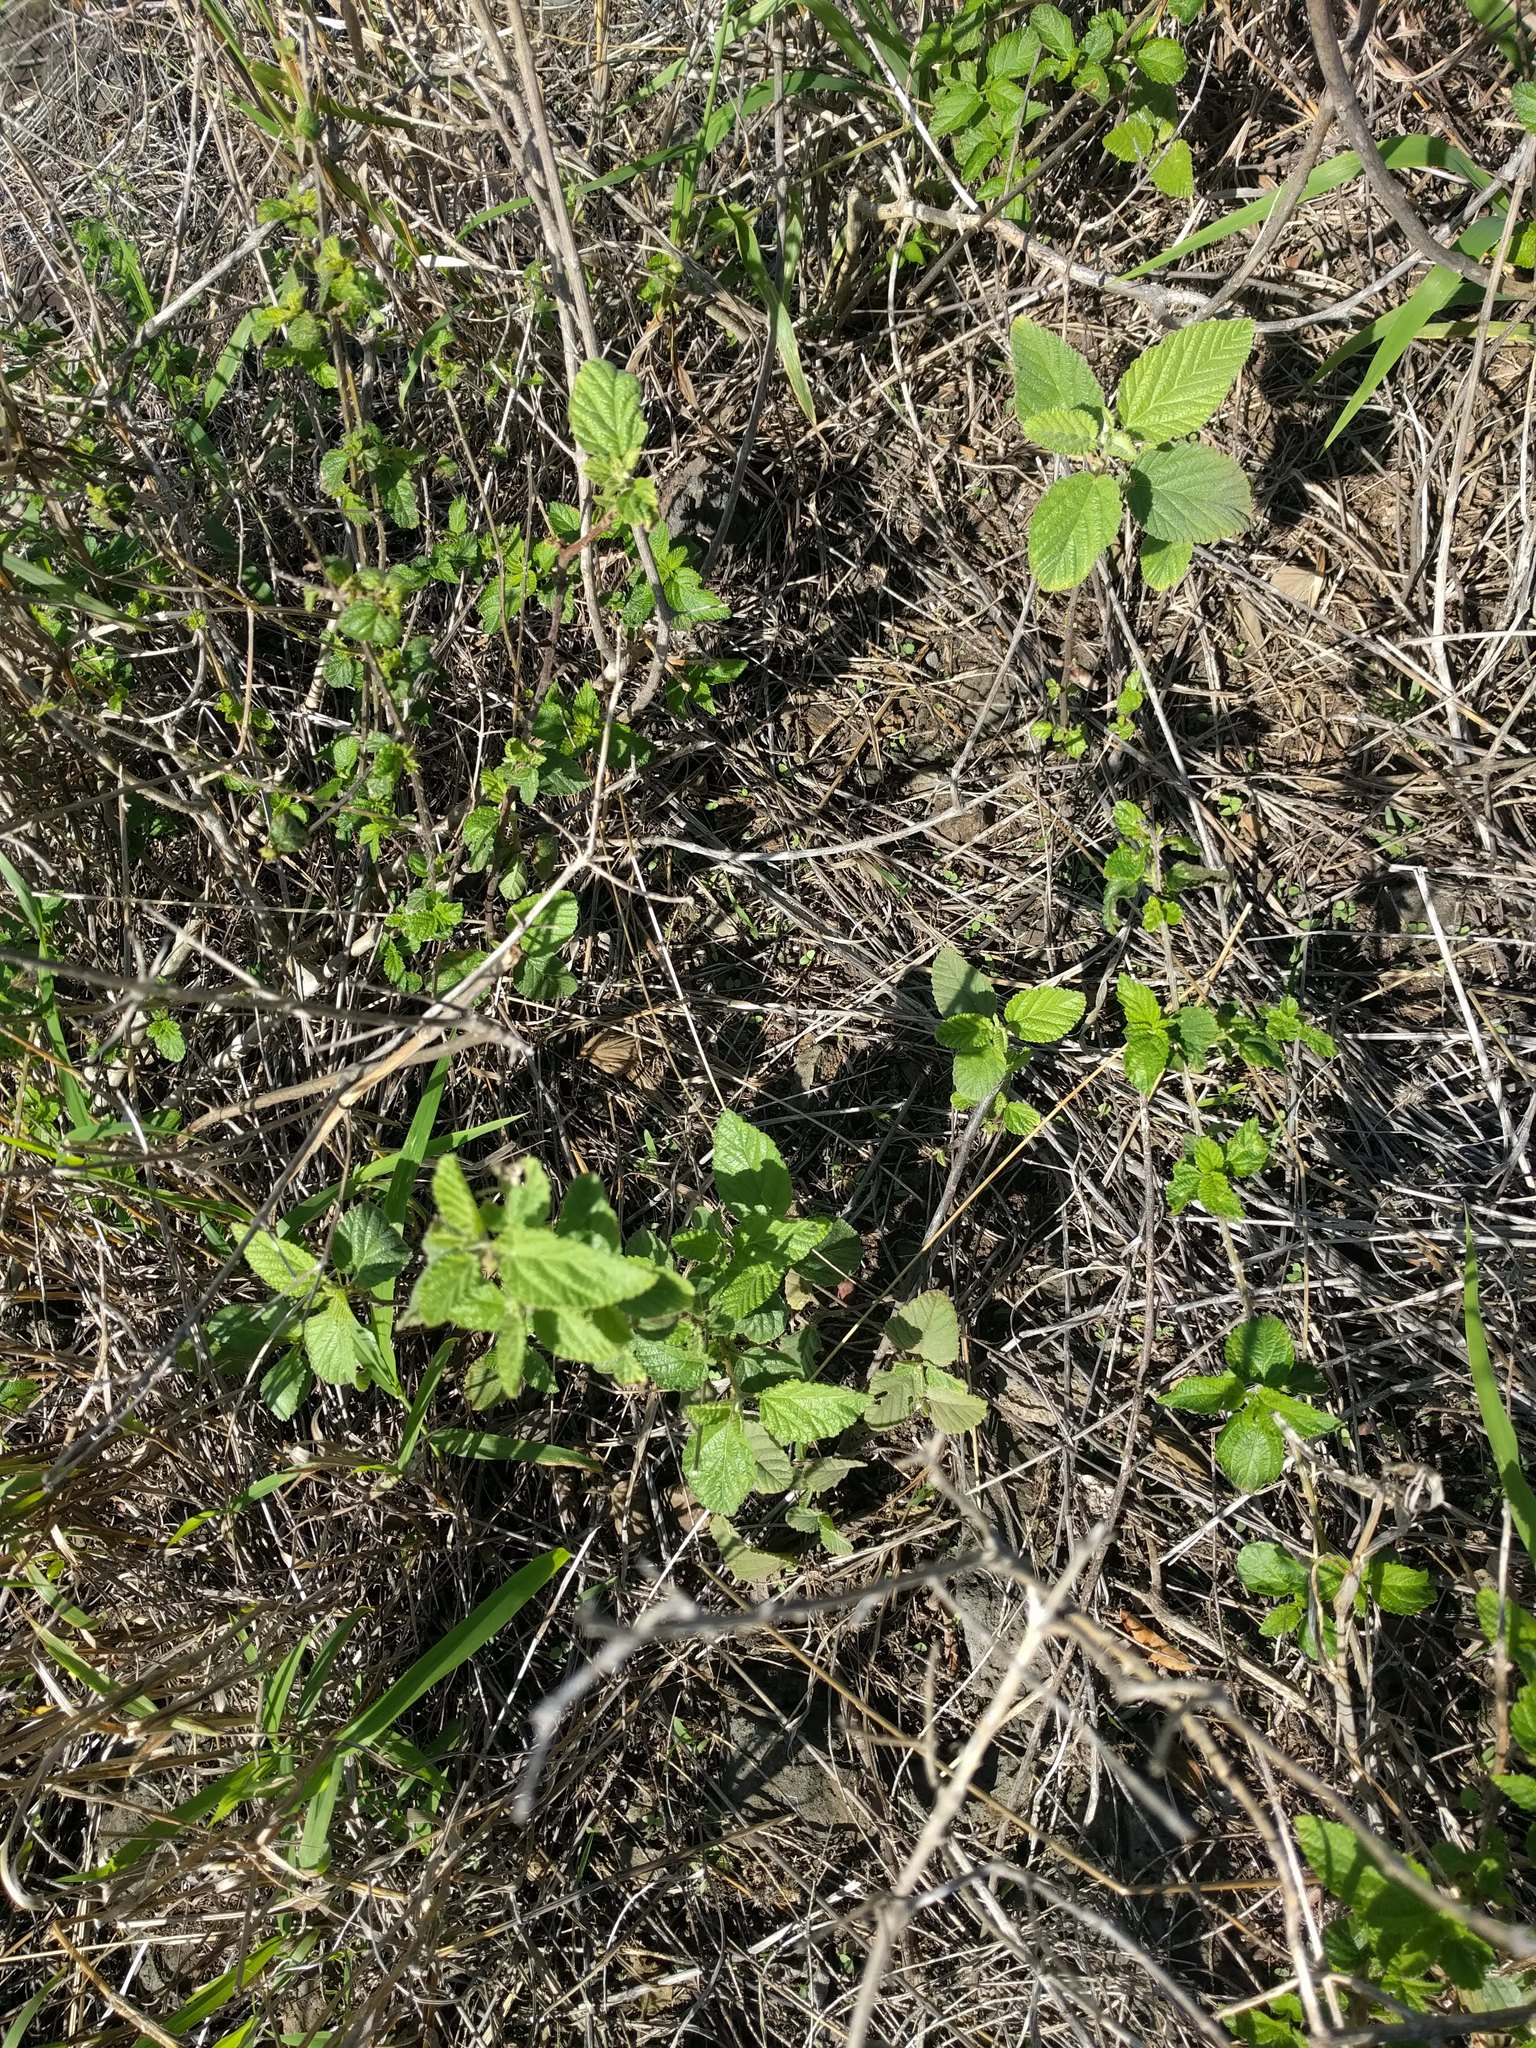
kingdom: Plantae
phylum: Tracheophyta
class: Magnoliopsida
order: Malvales
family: Malvaceae
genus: Waltheria
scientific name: Waltheria indica
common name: Leather-coat
